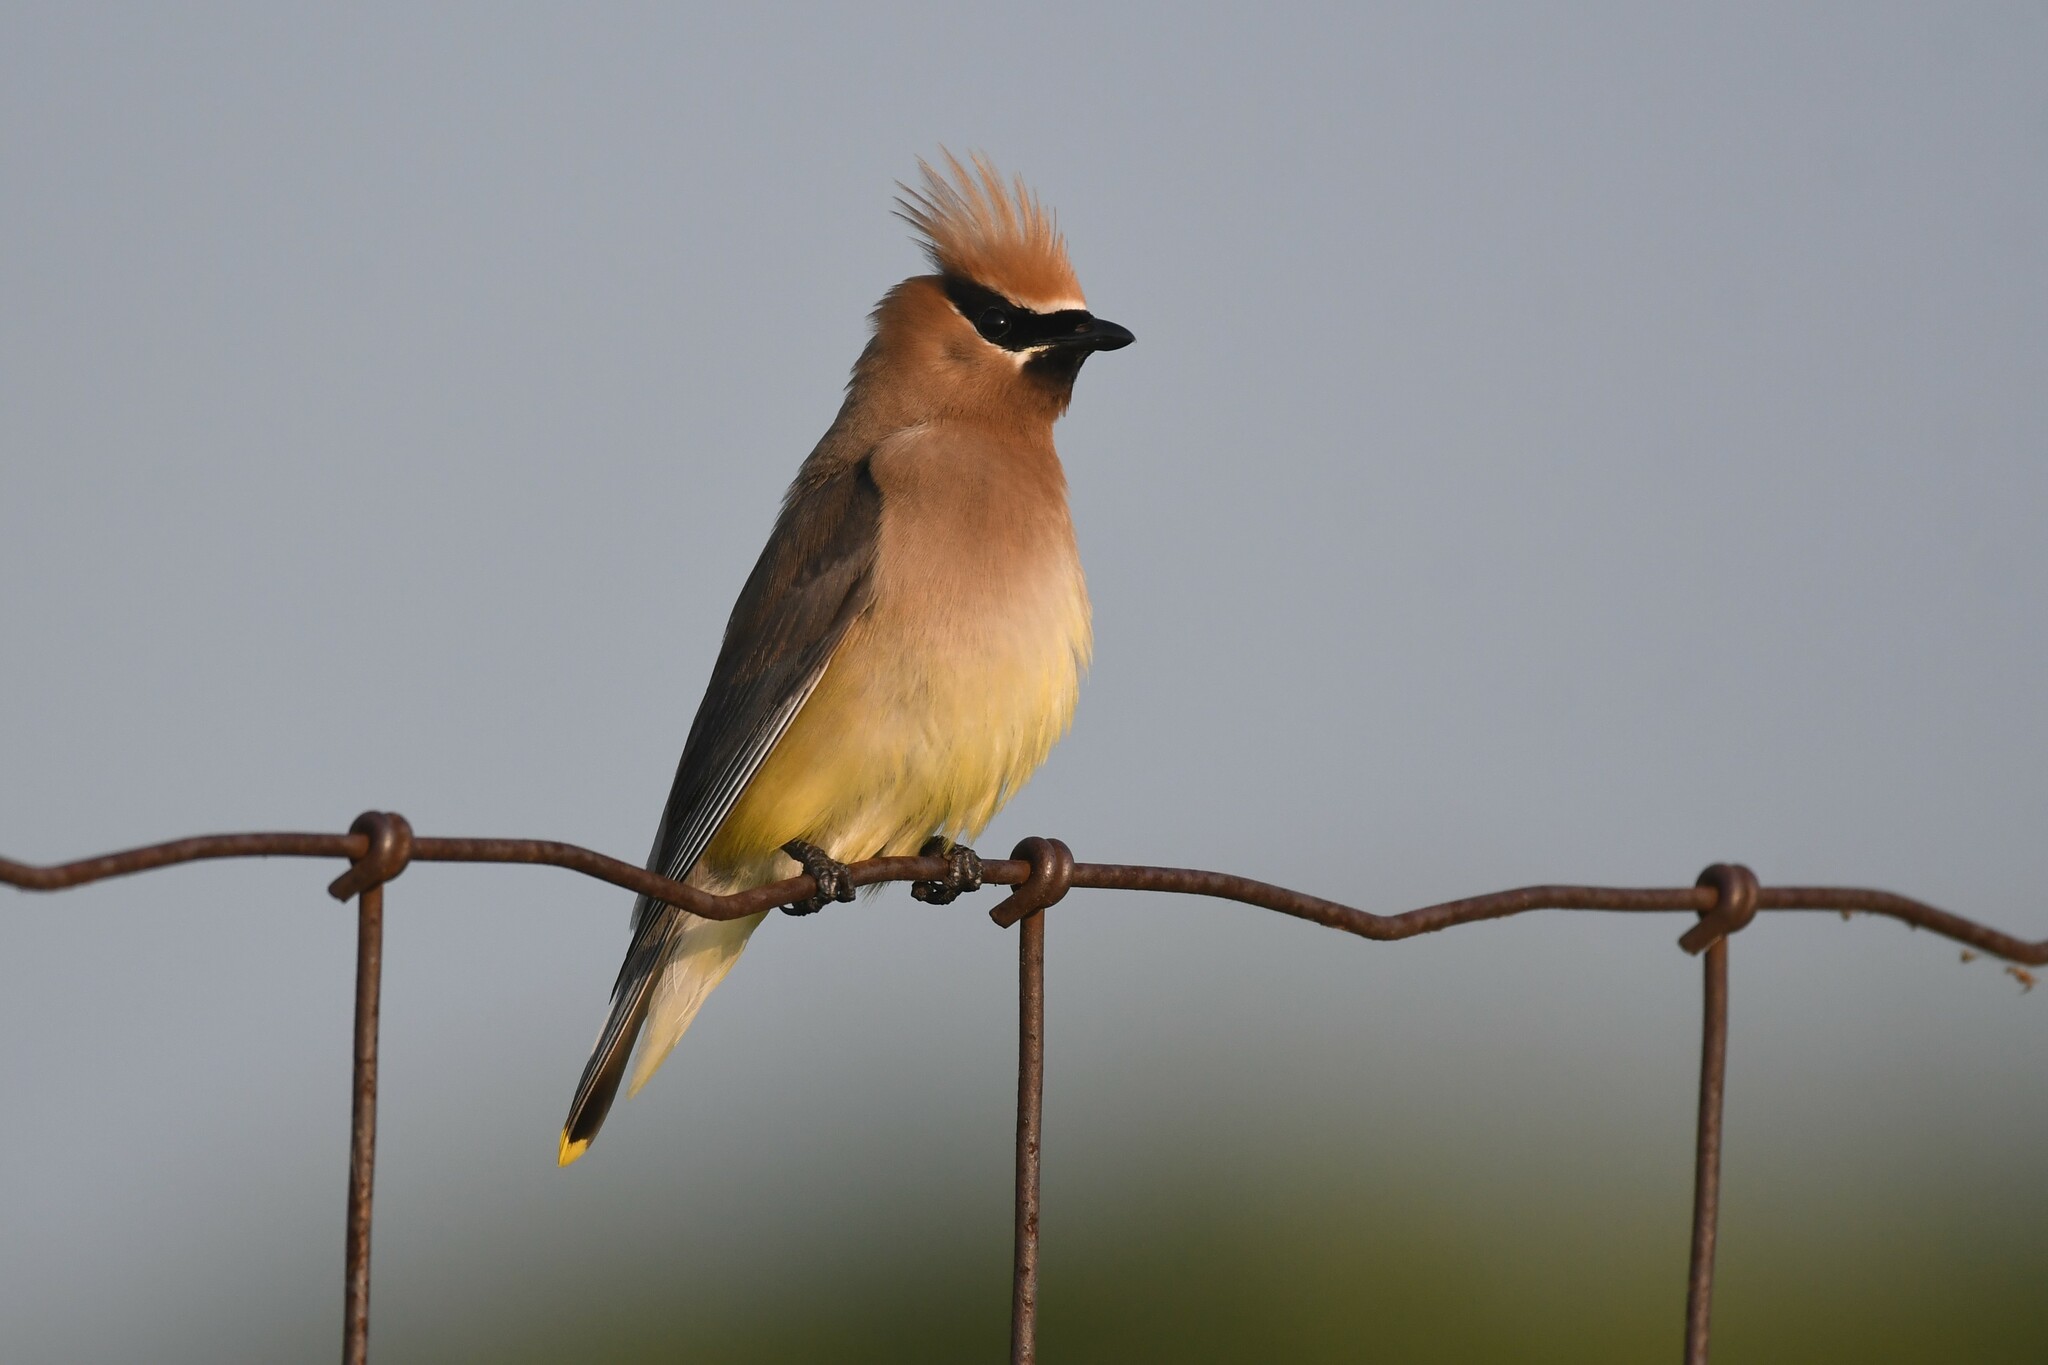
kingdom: Animalia
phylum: Chordata
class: Aves
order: Passeriformes
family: Bombycillidae
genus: Bombycilla
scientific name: Bombycilla cedrorum
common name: Cedar waxwing
